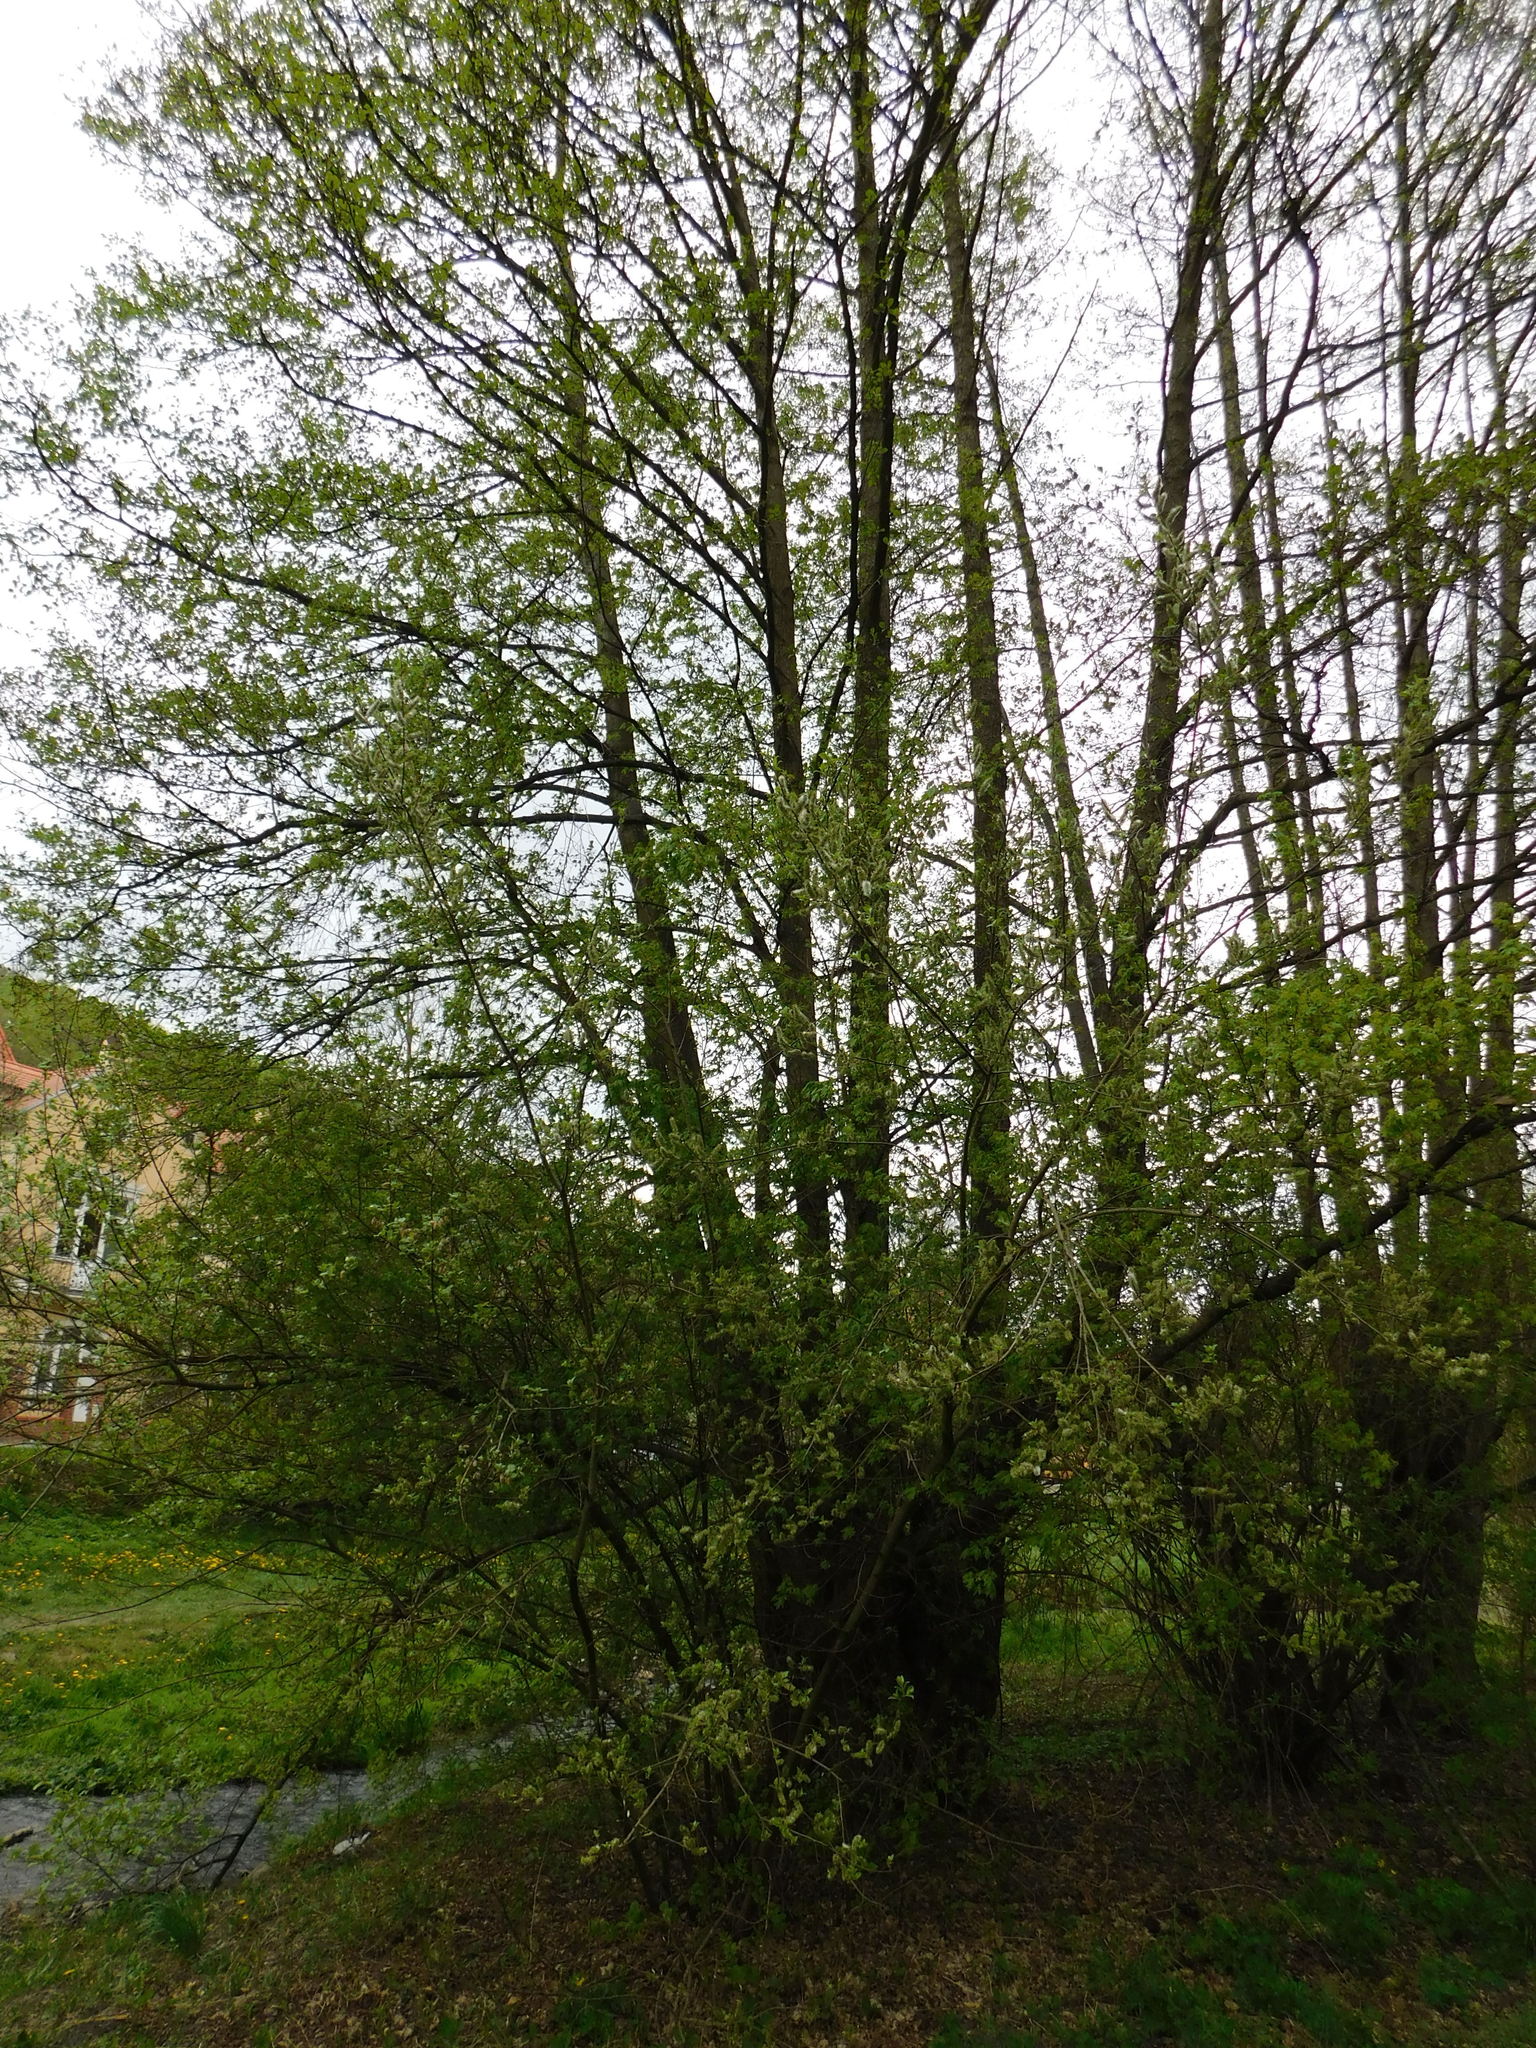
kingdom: Plantae
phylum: Tracheophyta
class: Magnoliopsida
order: Malpighiales
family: Salicaceae
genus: Salix
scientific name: Salix caprea
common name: Goat willow
